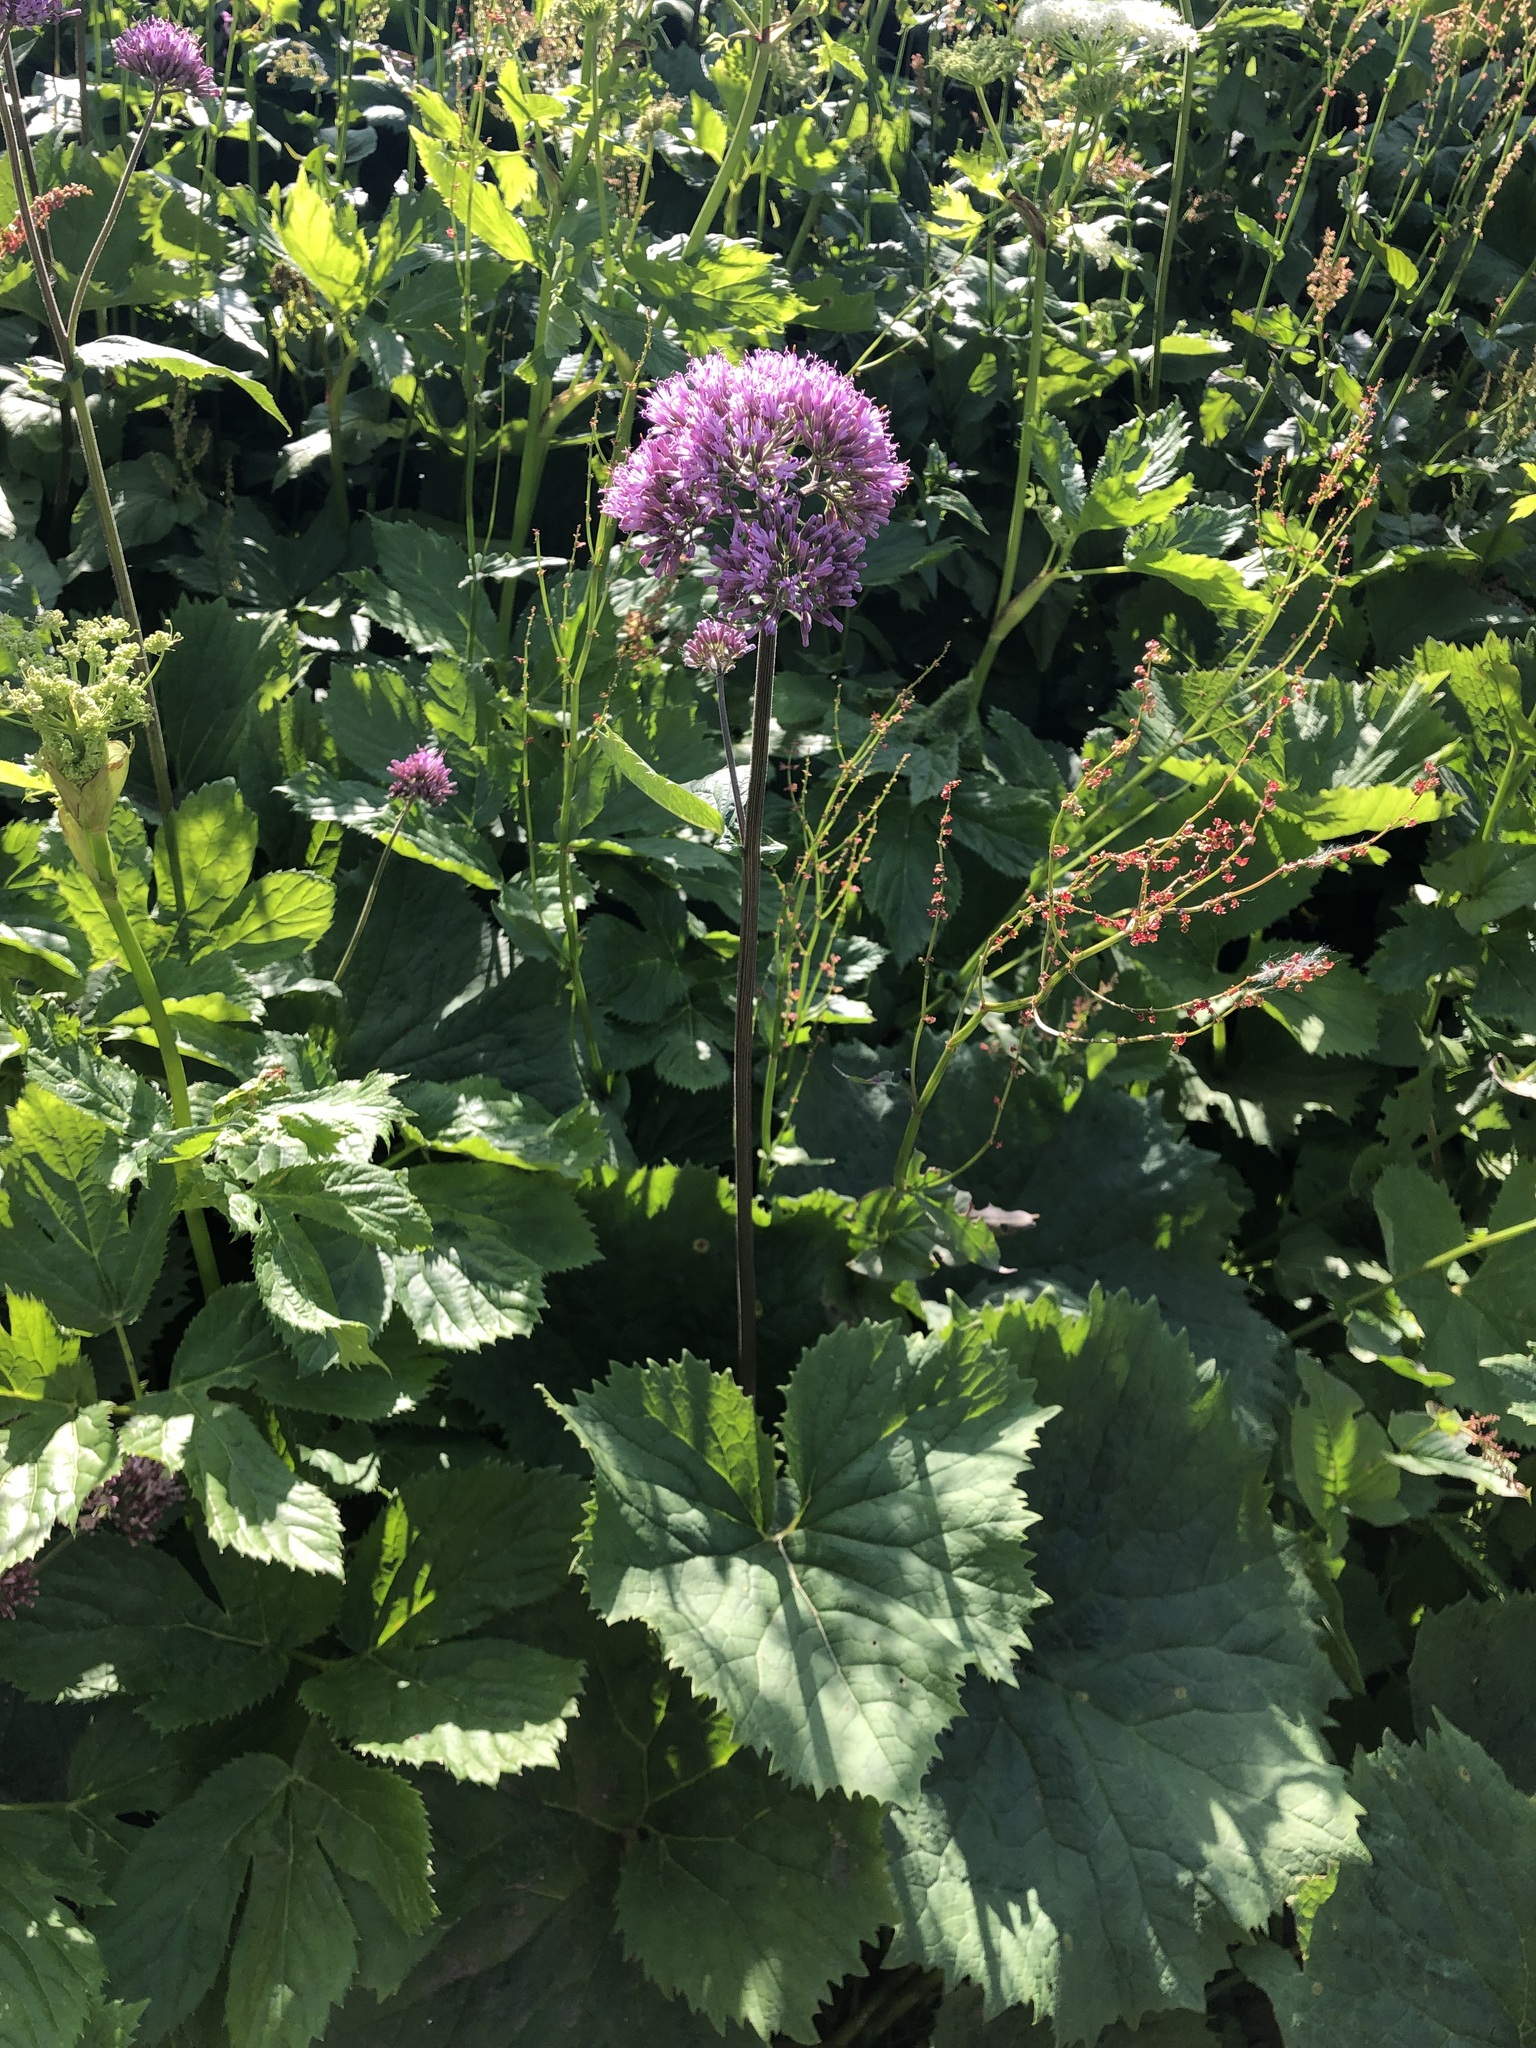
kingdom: Plantae
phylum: Tracheophyta
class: Magnoliopsida
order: Asterales
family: Asteraceae
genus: Adenostyles
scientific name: Adenostyles alliariae
